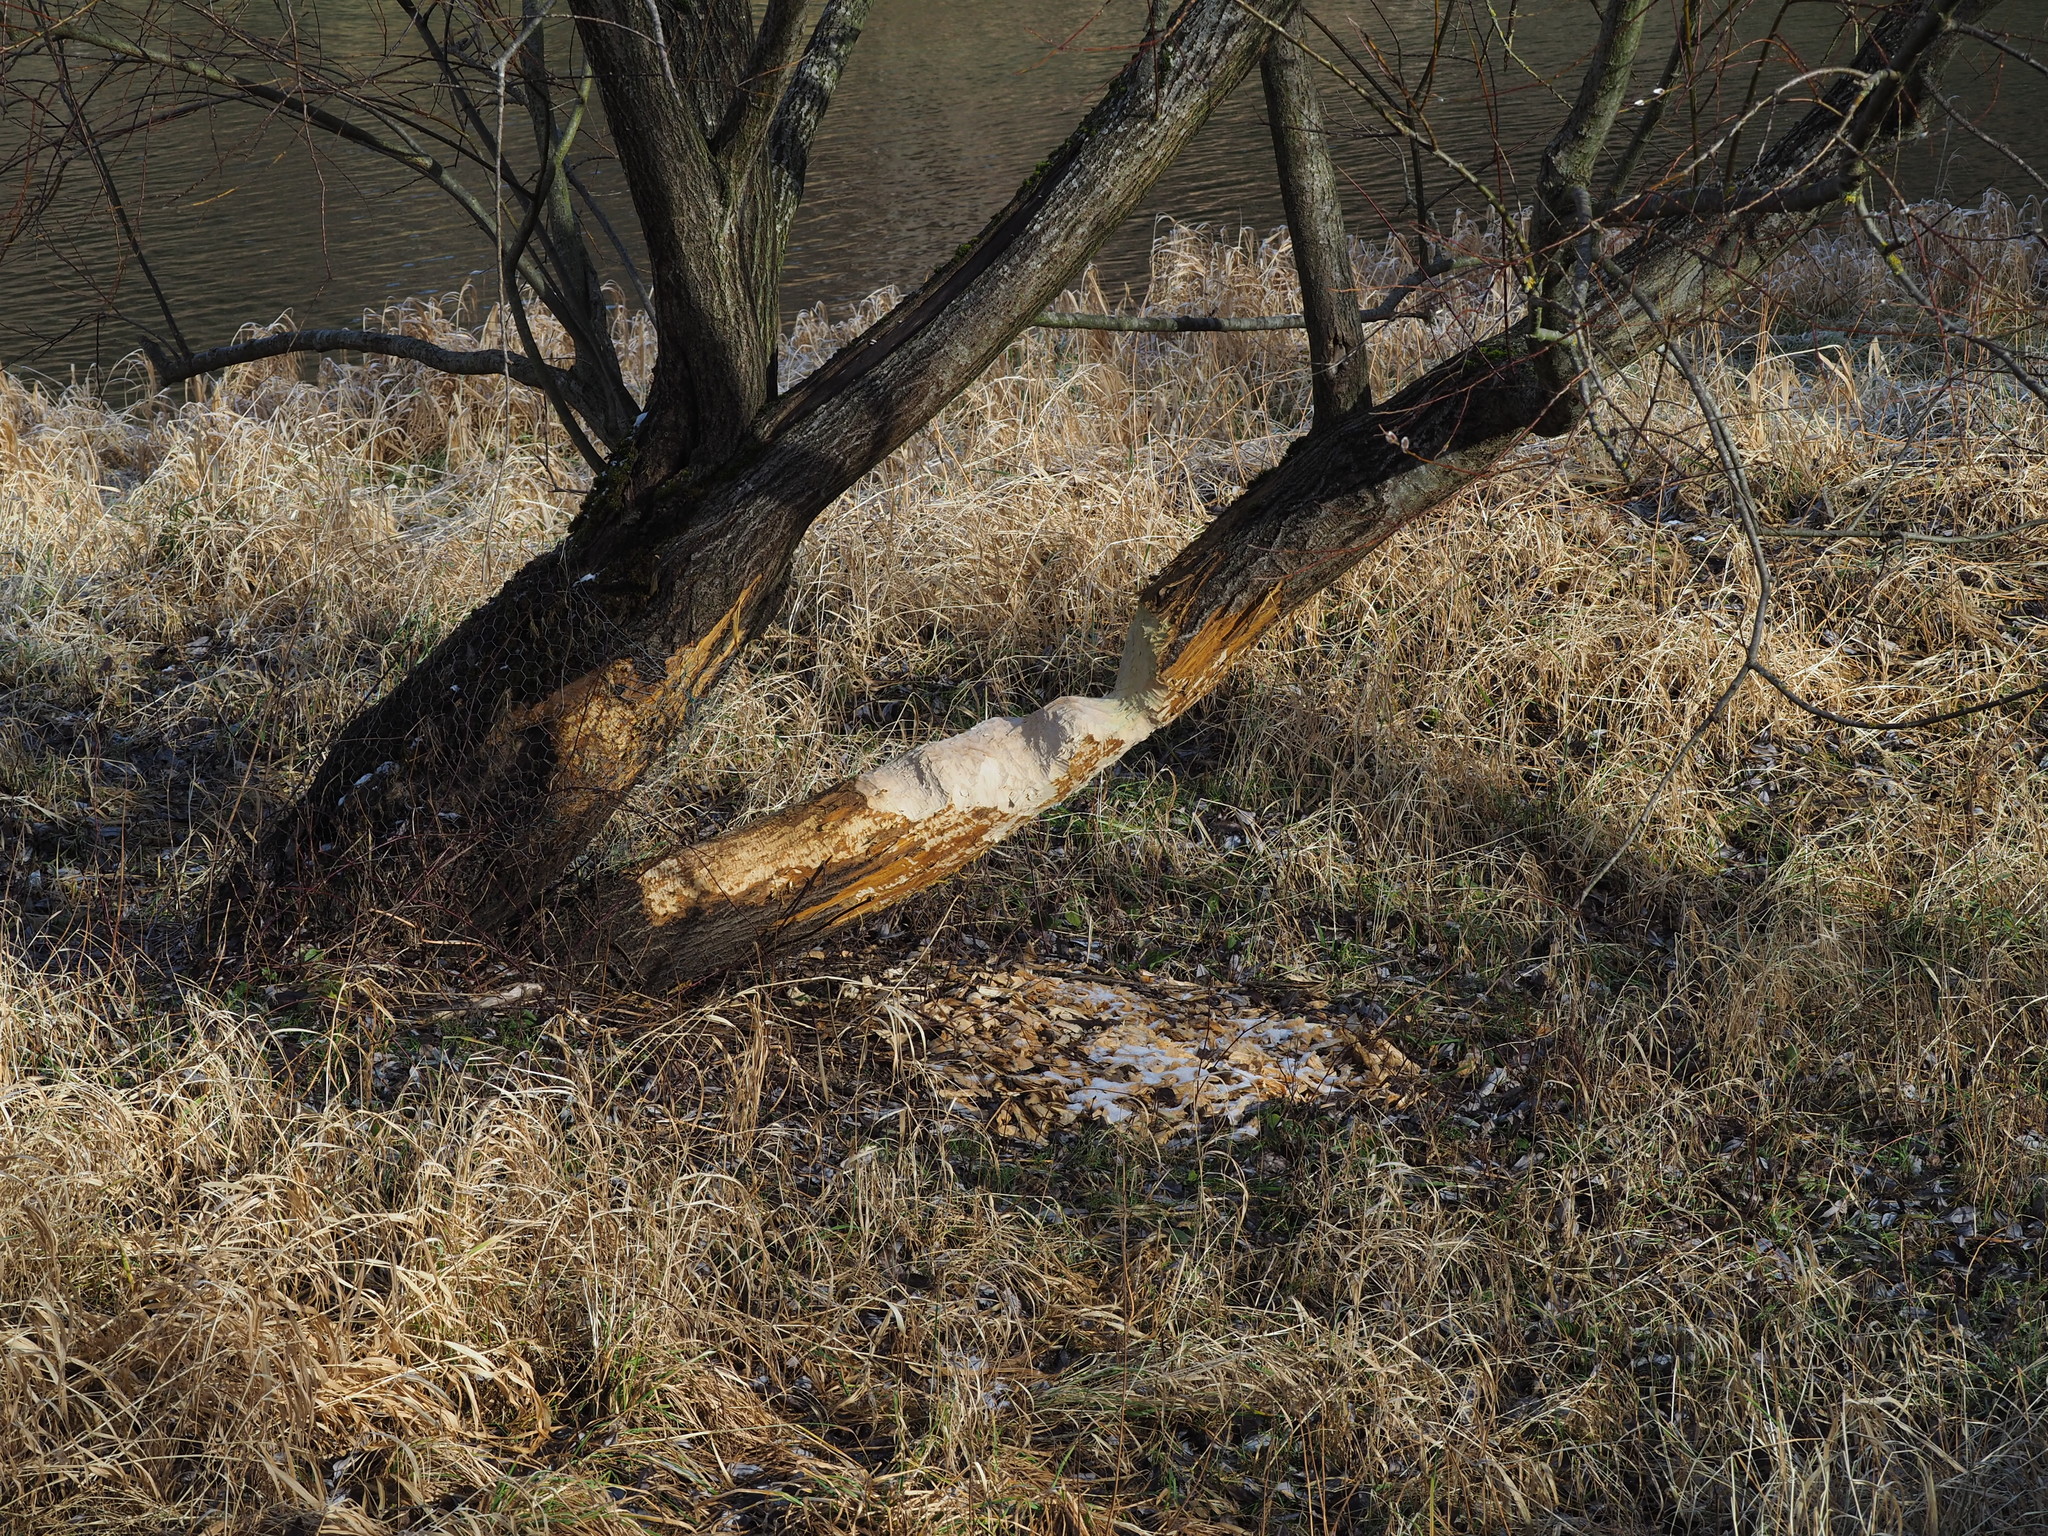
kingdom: Animalia
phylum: Chordata
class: Mammalia
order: Rodentia
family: Castoridae
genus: Castor
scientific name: Castor fiber
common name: Eurasian beaver
